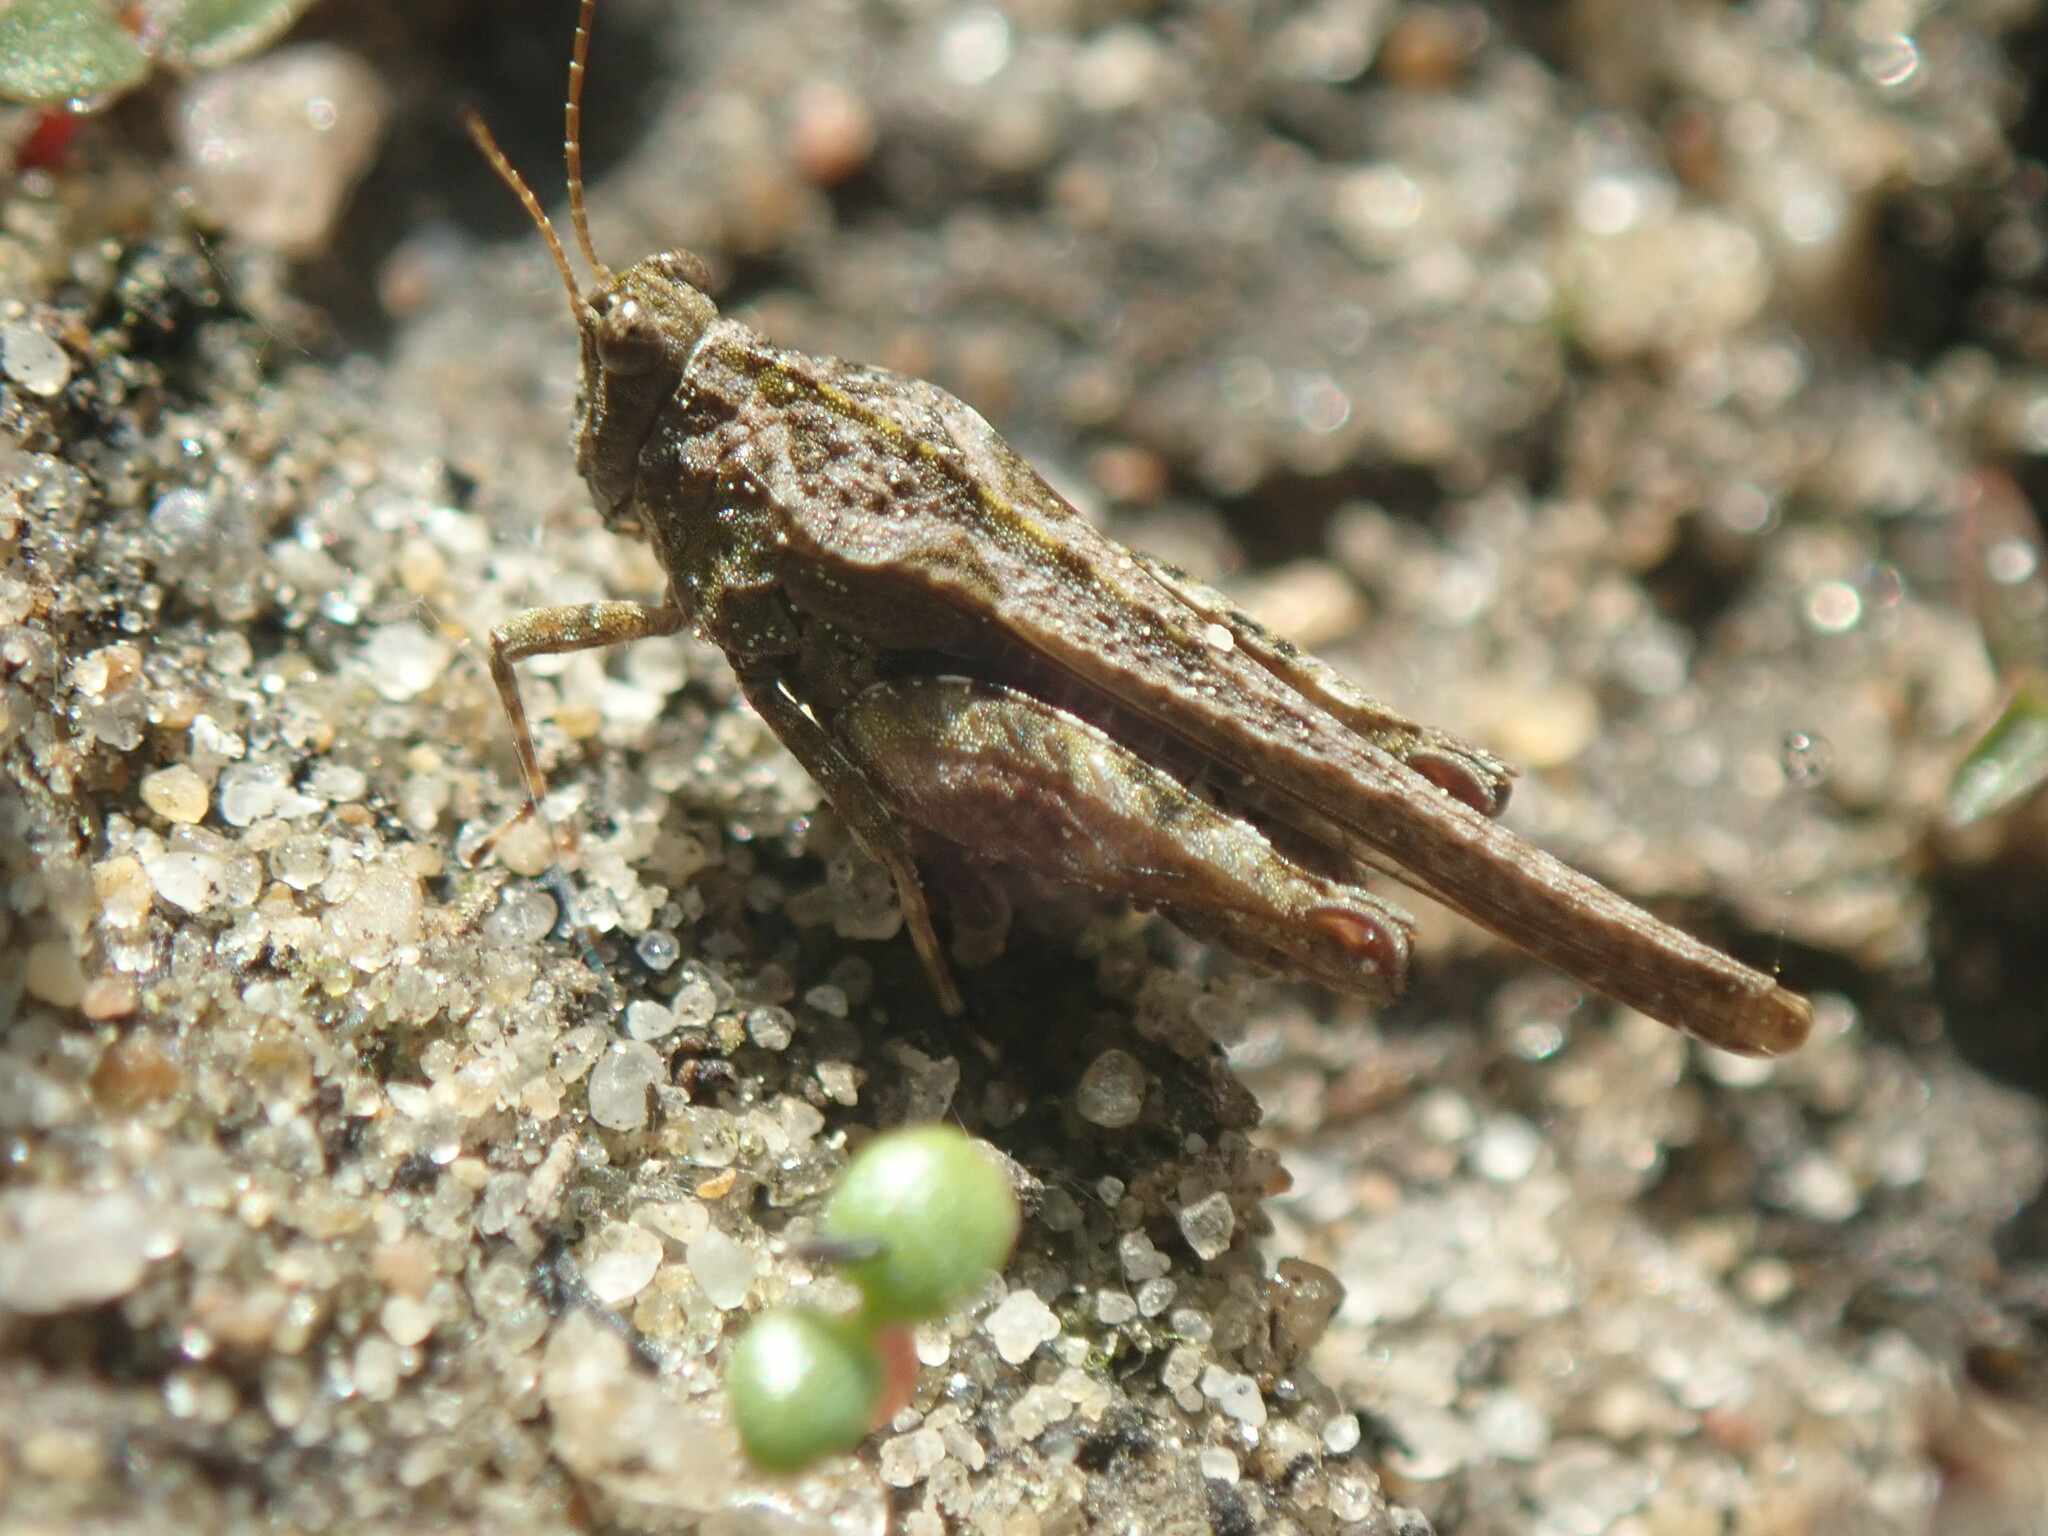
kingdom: Animalia
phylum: Arthropoda
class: Insecta
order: Orthoptera
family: Tetrigidae
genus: Tetrix
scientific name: Tetrix ceperoi
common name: Cepero's ground-hopper
